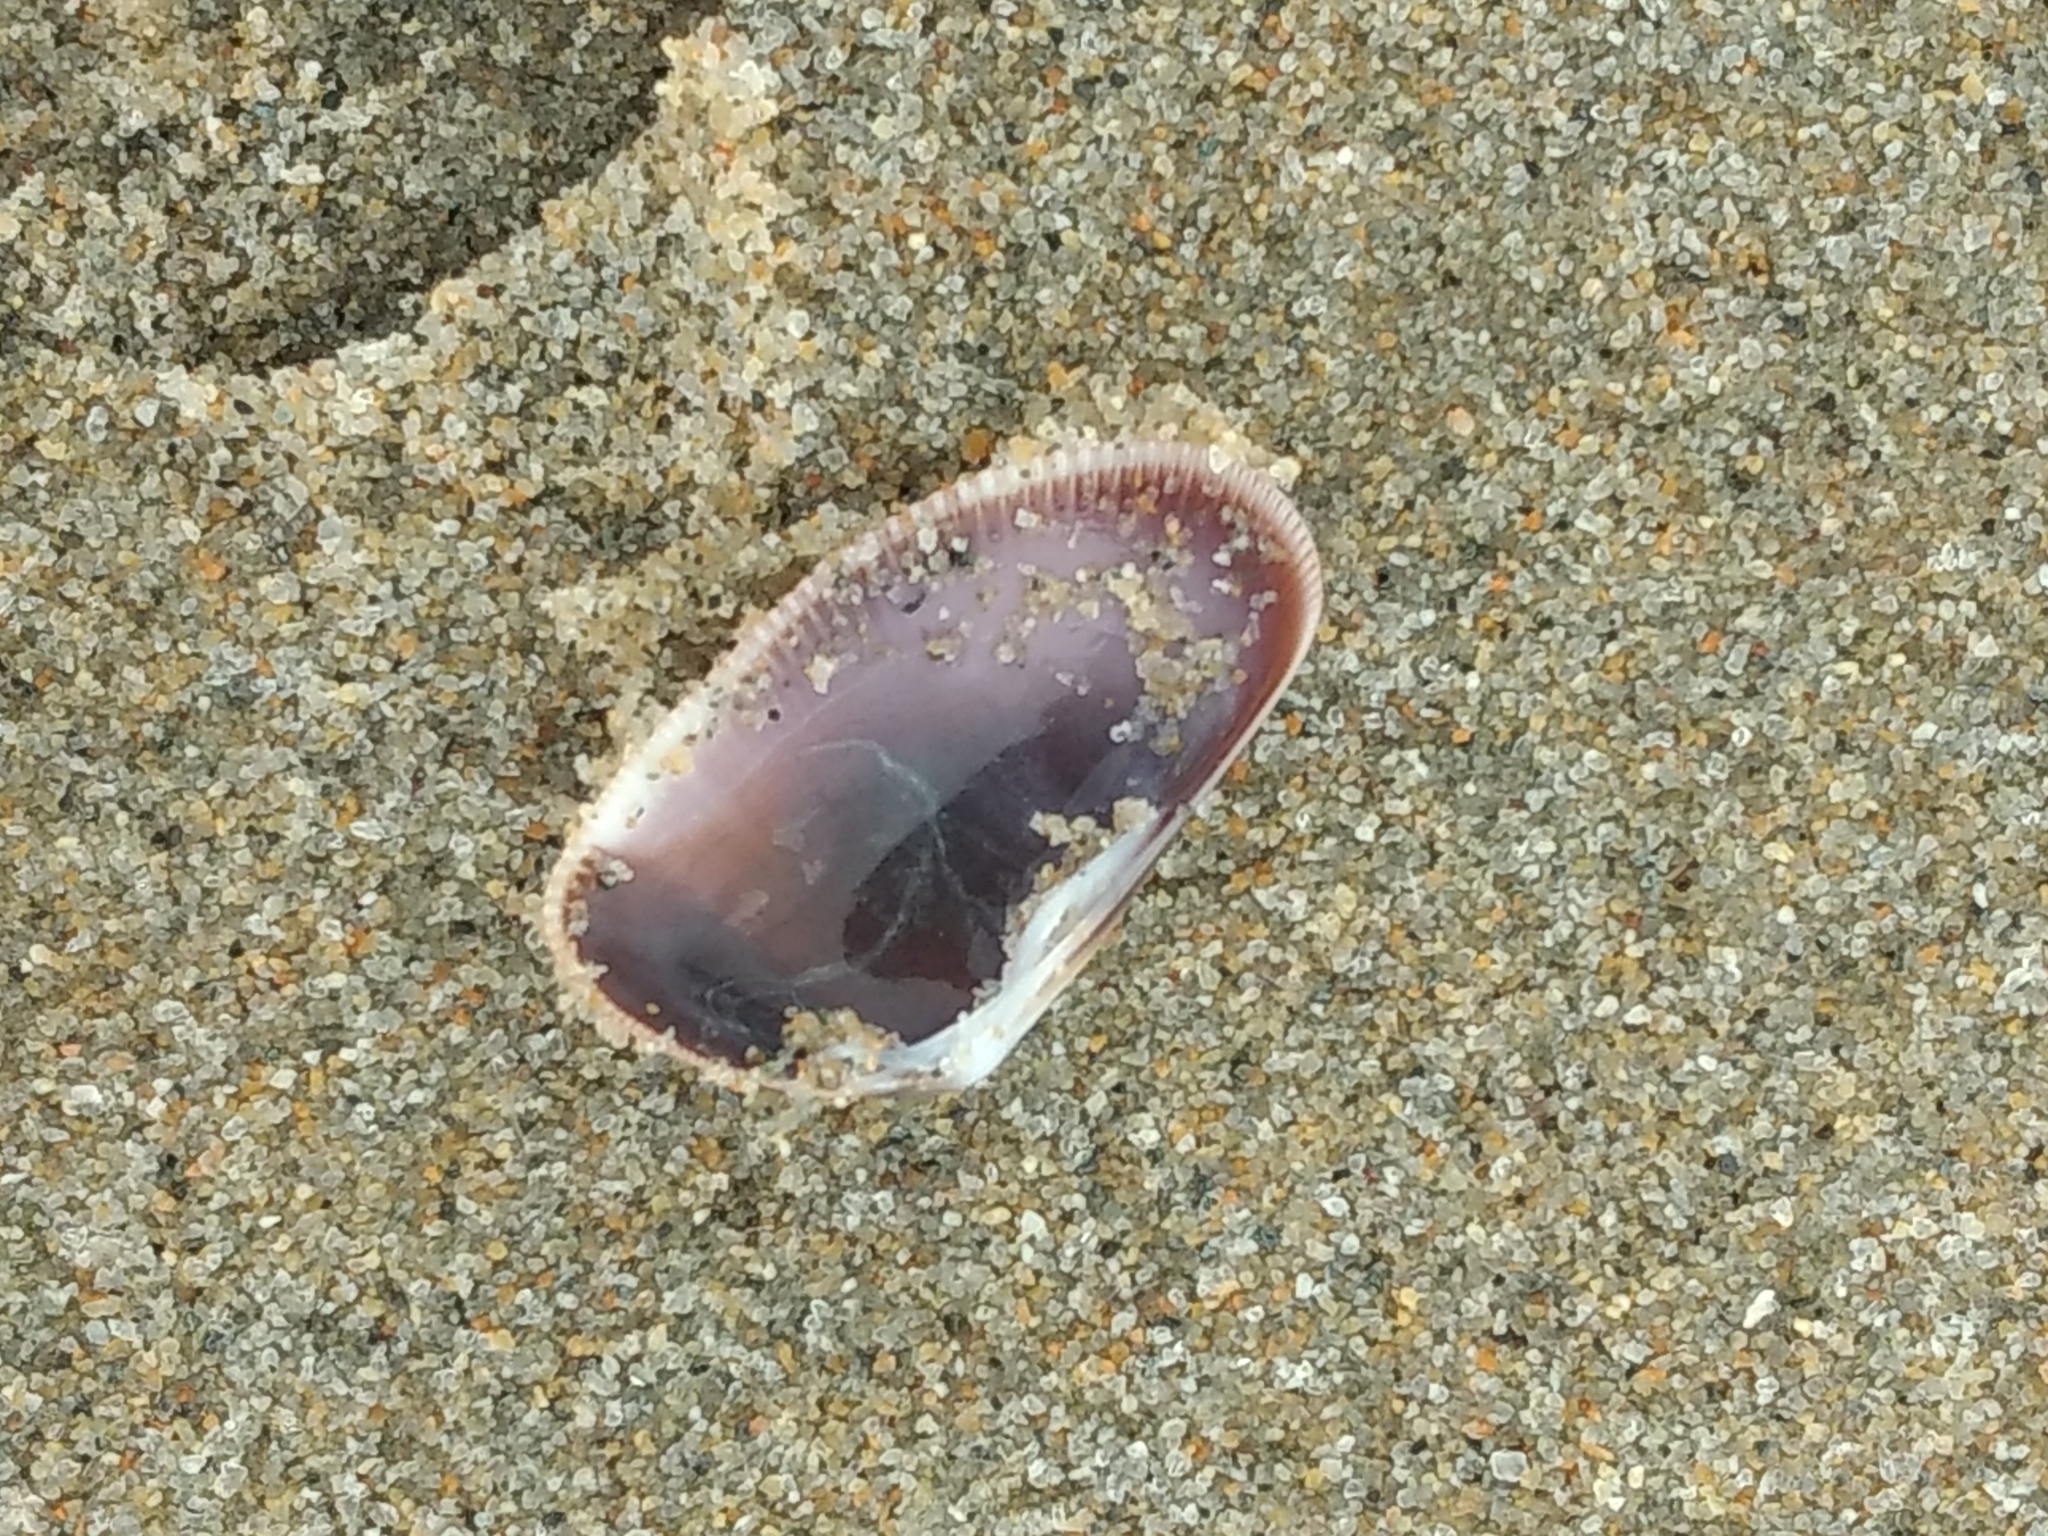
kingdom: Animalia
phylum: Mollusca
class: Bivalvia
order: Cardiida
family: Donacidae
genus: Donax
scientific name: Donax gouldii
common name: Gould beanclam
